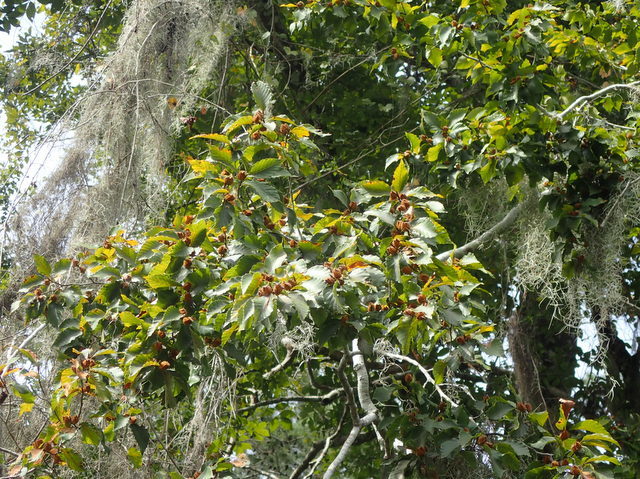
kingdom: Plantae
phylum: Tracheophyta
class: Magnoliopsida
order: Fagales
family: Fagaceae
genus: Fagus
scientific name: Fagus grandifolia
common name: American beech
